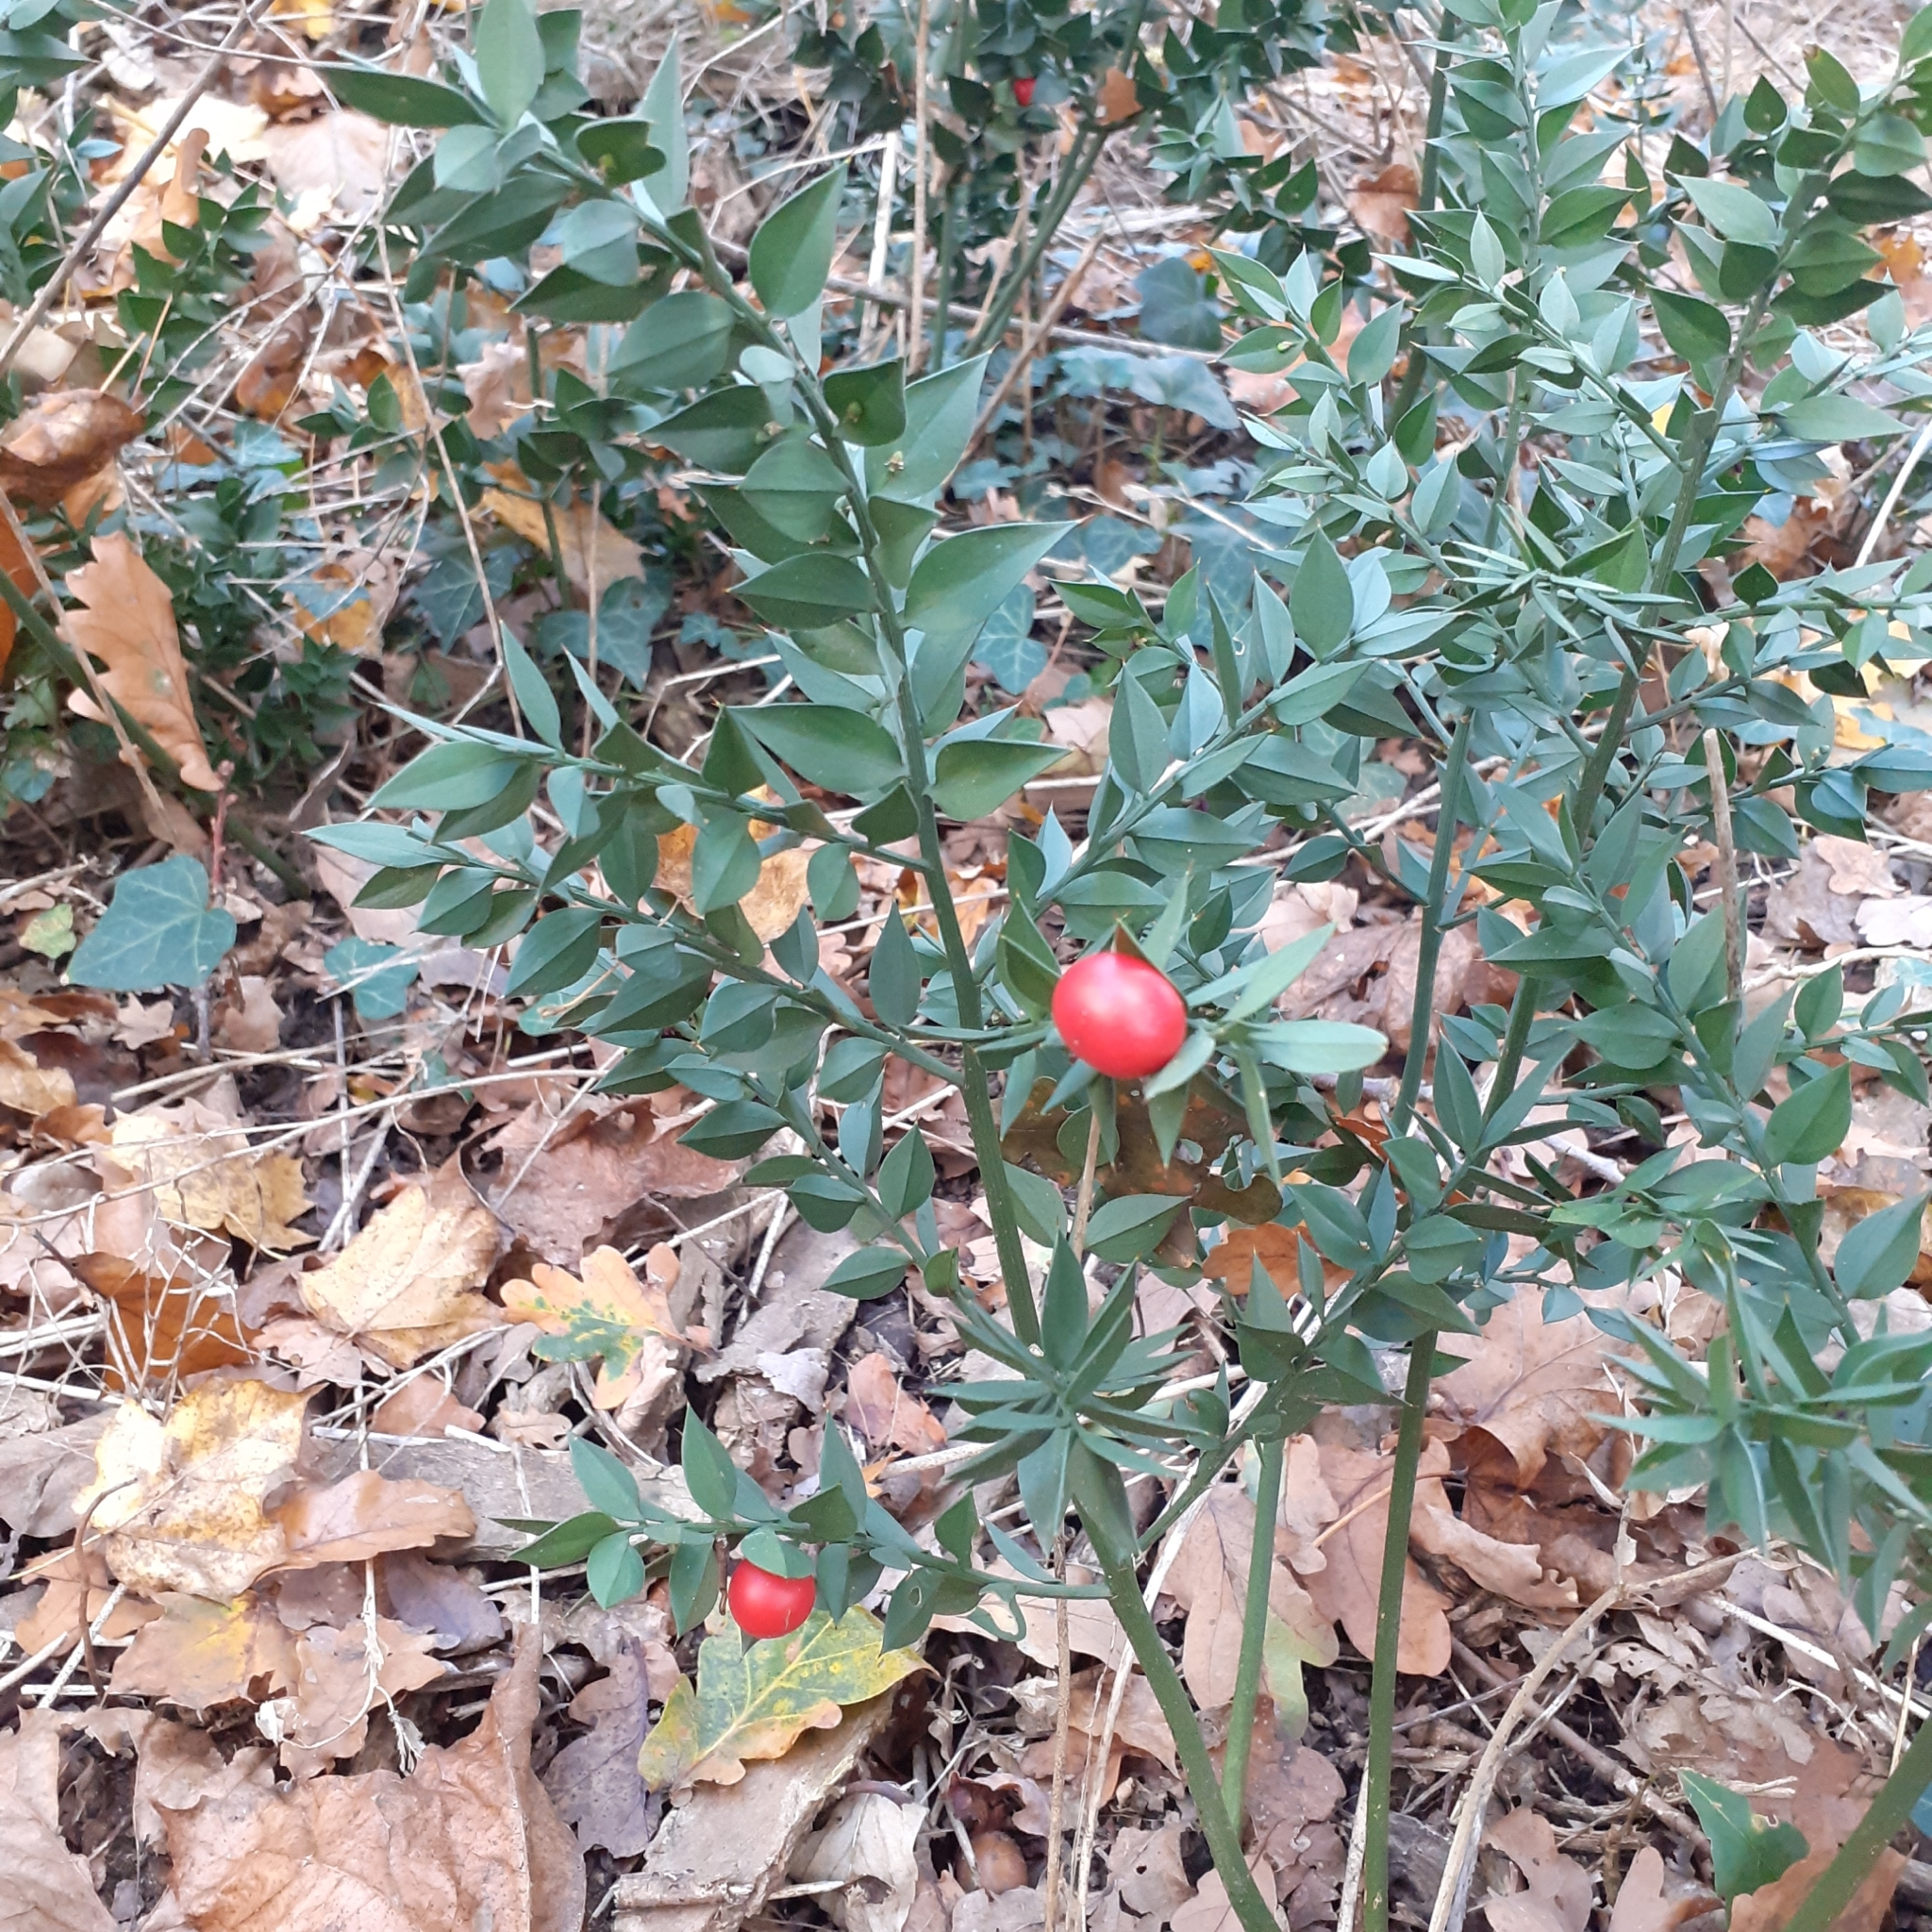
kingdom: Plantae
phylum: Tracheophyta
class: Liliopsida
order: Asparagales
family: Asparagaceae
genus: Ruscus
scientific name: Ruscus aculeatus
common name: Butcher's-broom
